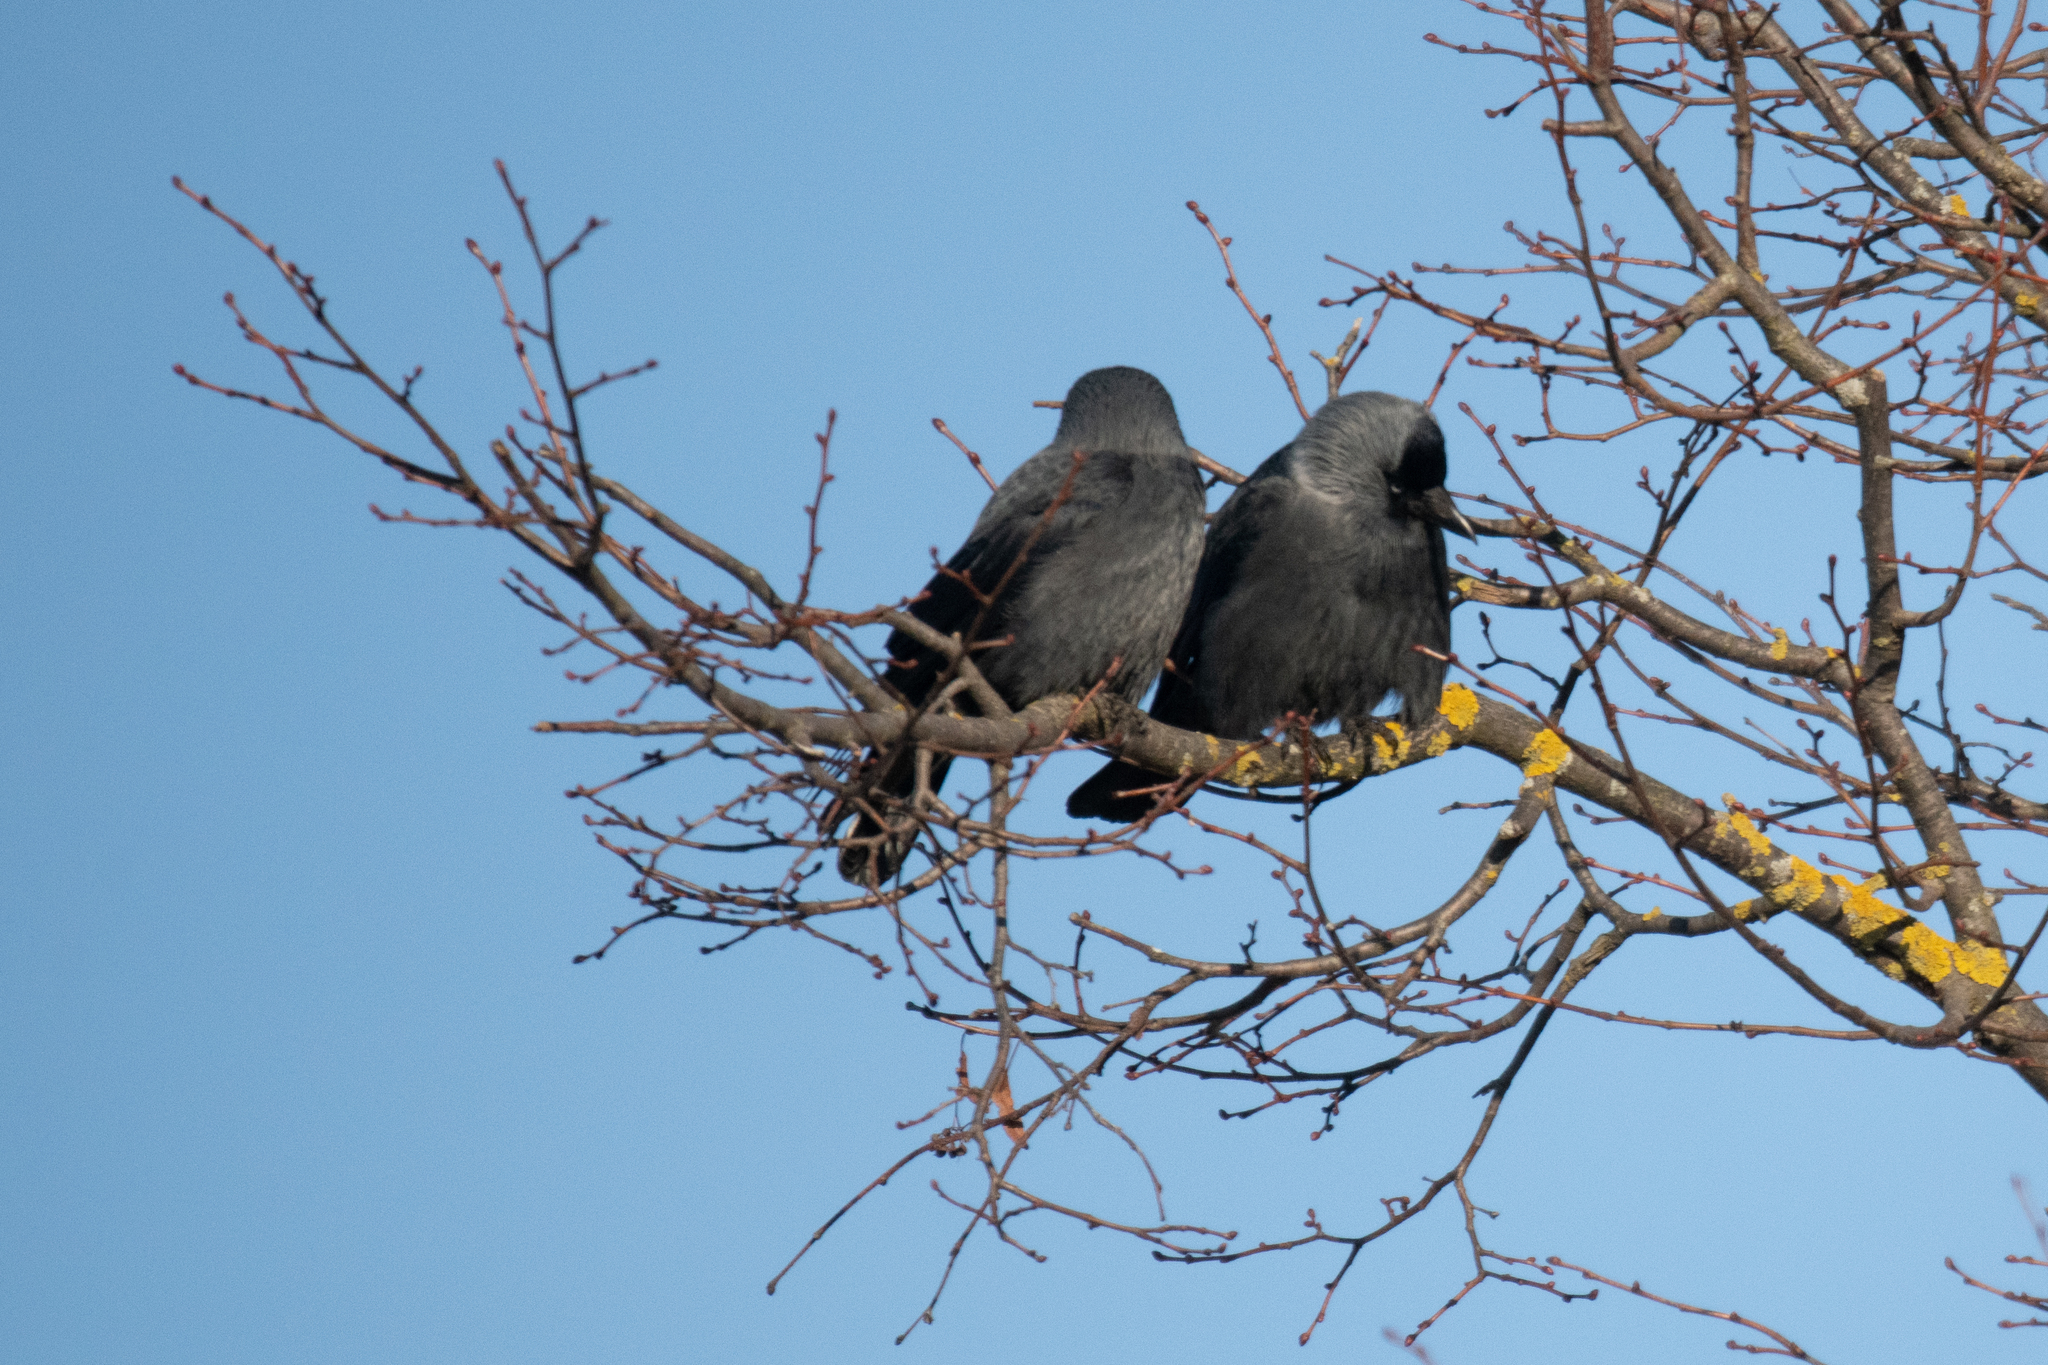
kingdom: Animalia
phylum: Chordata
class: Aves
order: Passeriformes
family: Corvidae
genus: Coloeus
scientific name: Coloeus monedula
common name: Western jackdaw
